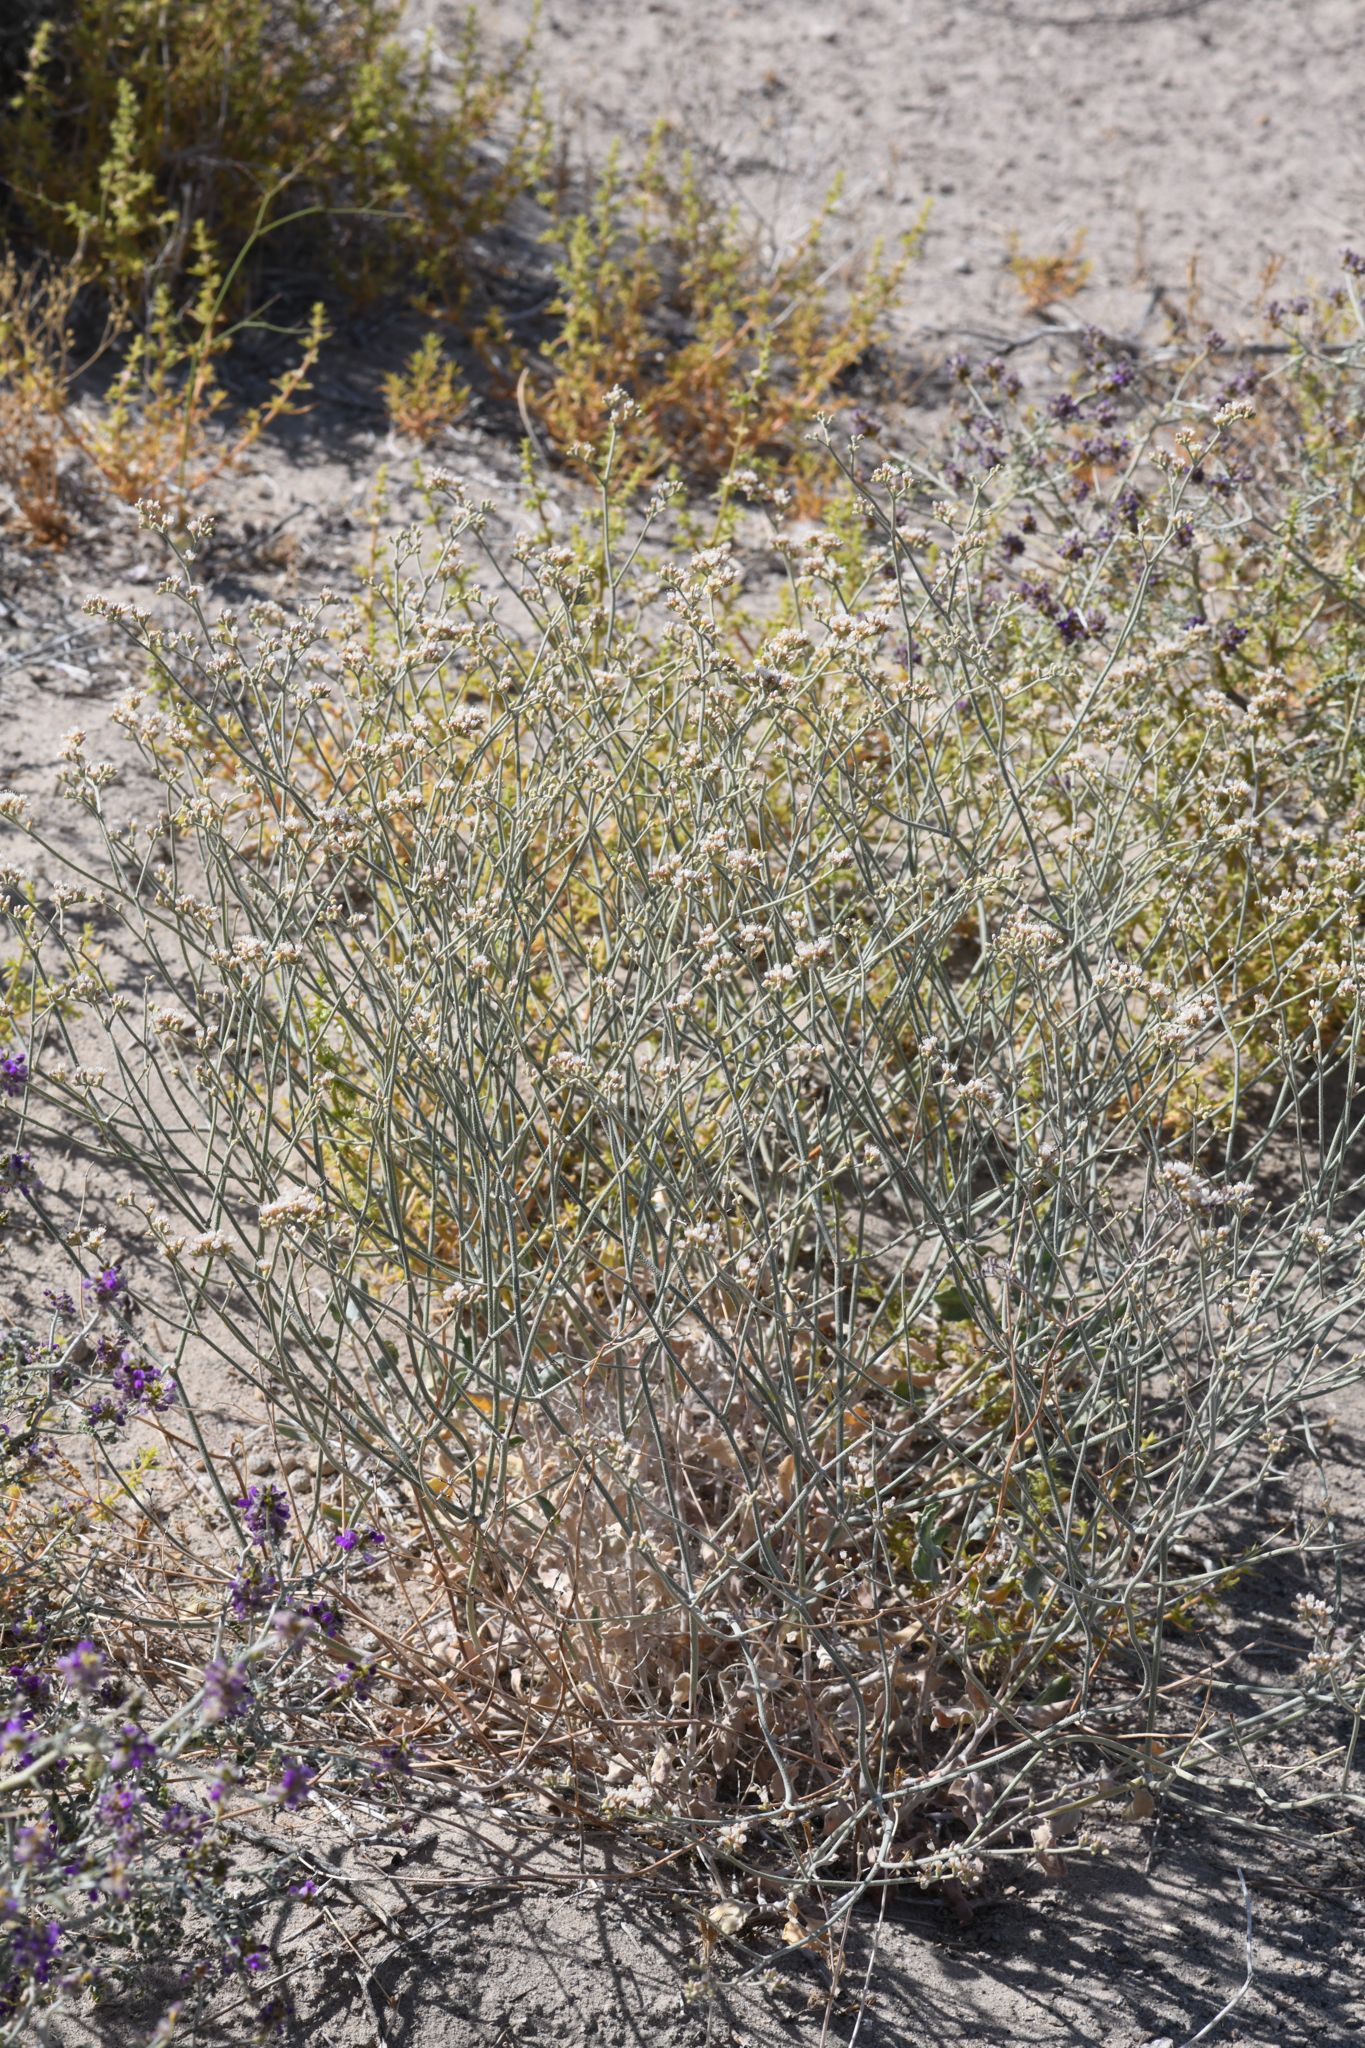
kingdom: Plantae
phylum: Tracheophyta
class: Magnoliopsida
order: Caryophyllales
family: Polygonaceae
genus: Eriogonum
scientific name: Eriogonum nummulare
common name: Kearney wild buckwheat
